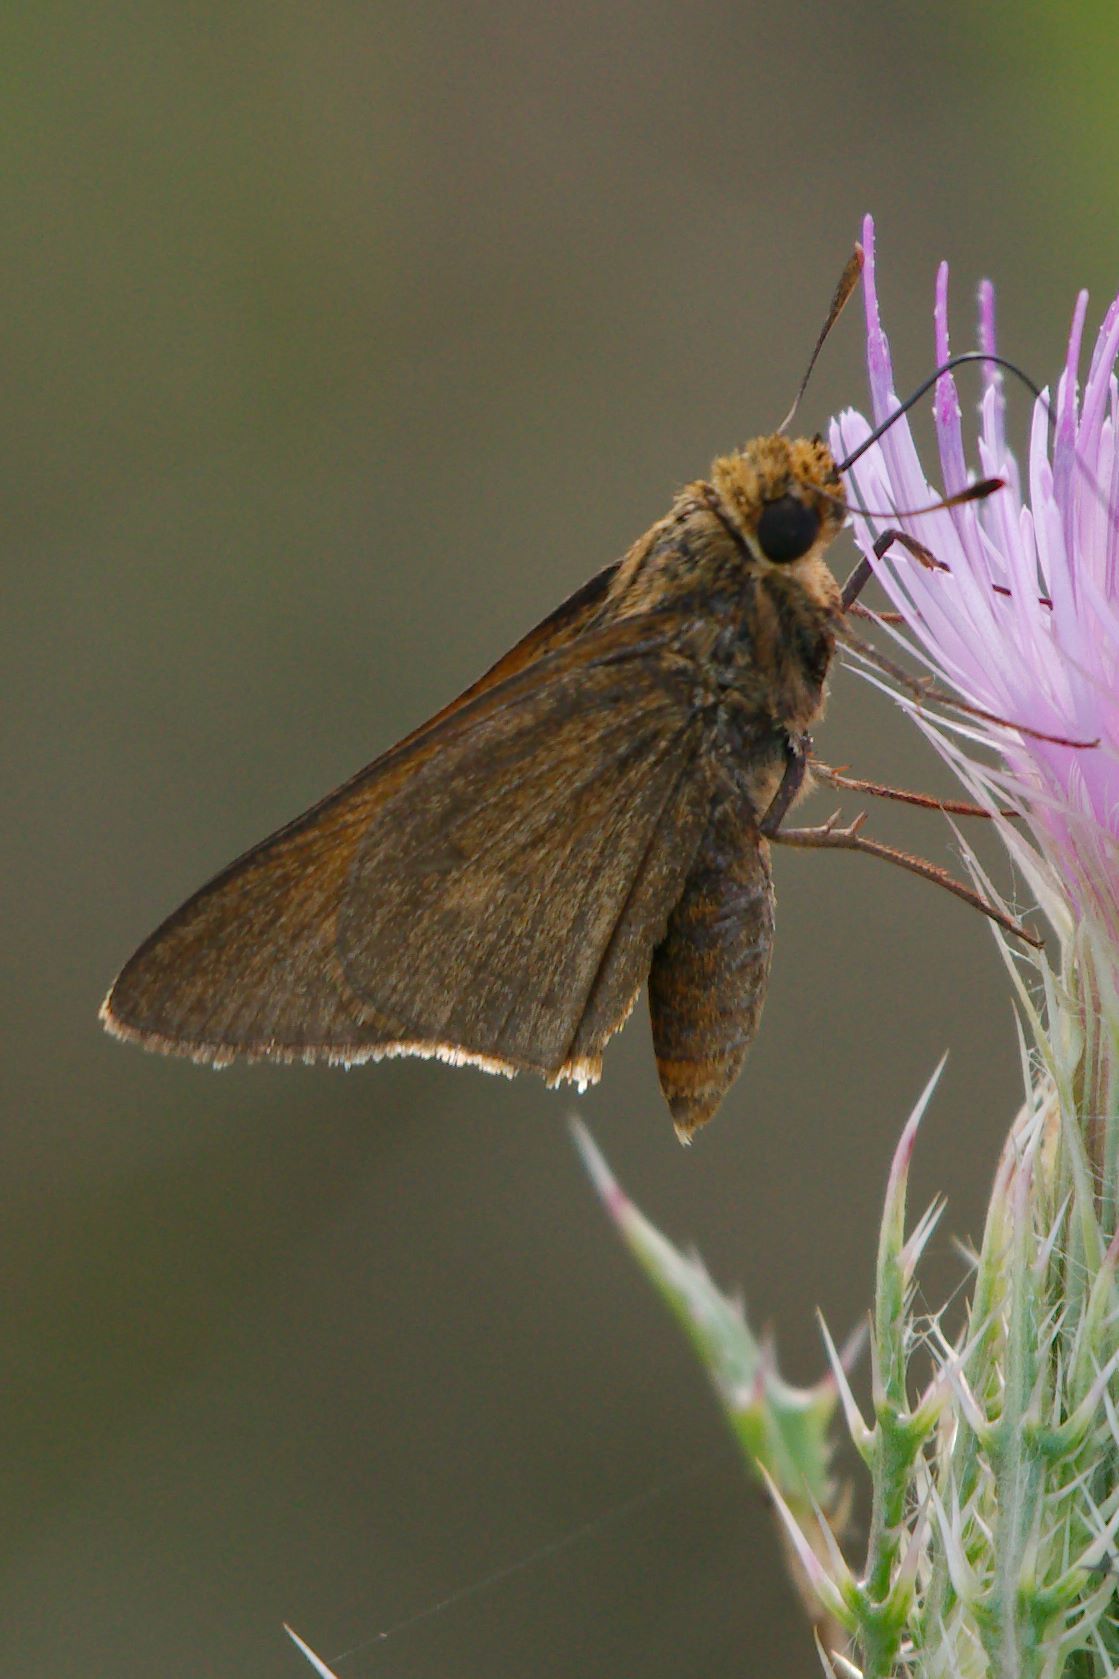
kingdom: Animalia
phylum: Arthropoda
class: Insecta
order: Lepidoptera
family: Hesperiidae
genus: Euphyes
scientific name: Euphyes pilatka
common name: Palatka skipper
